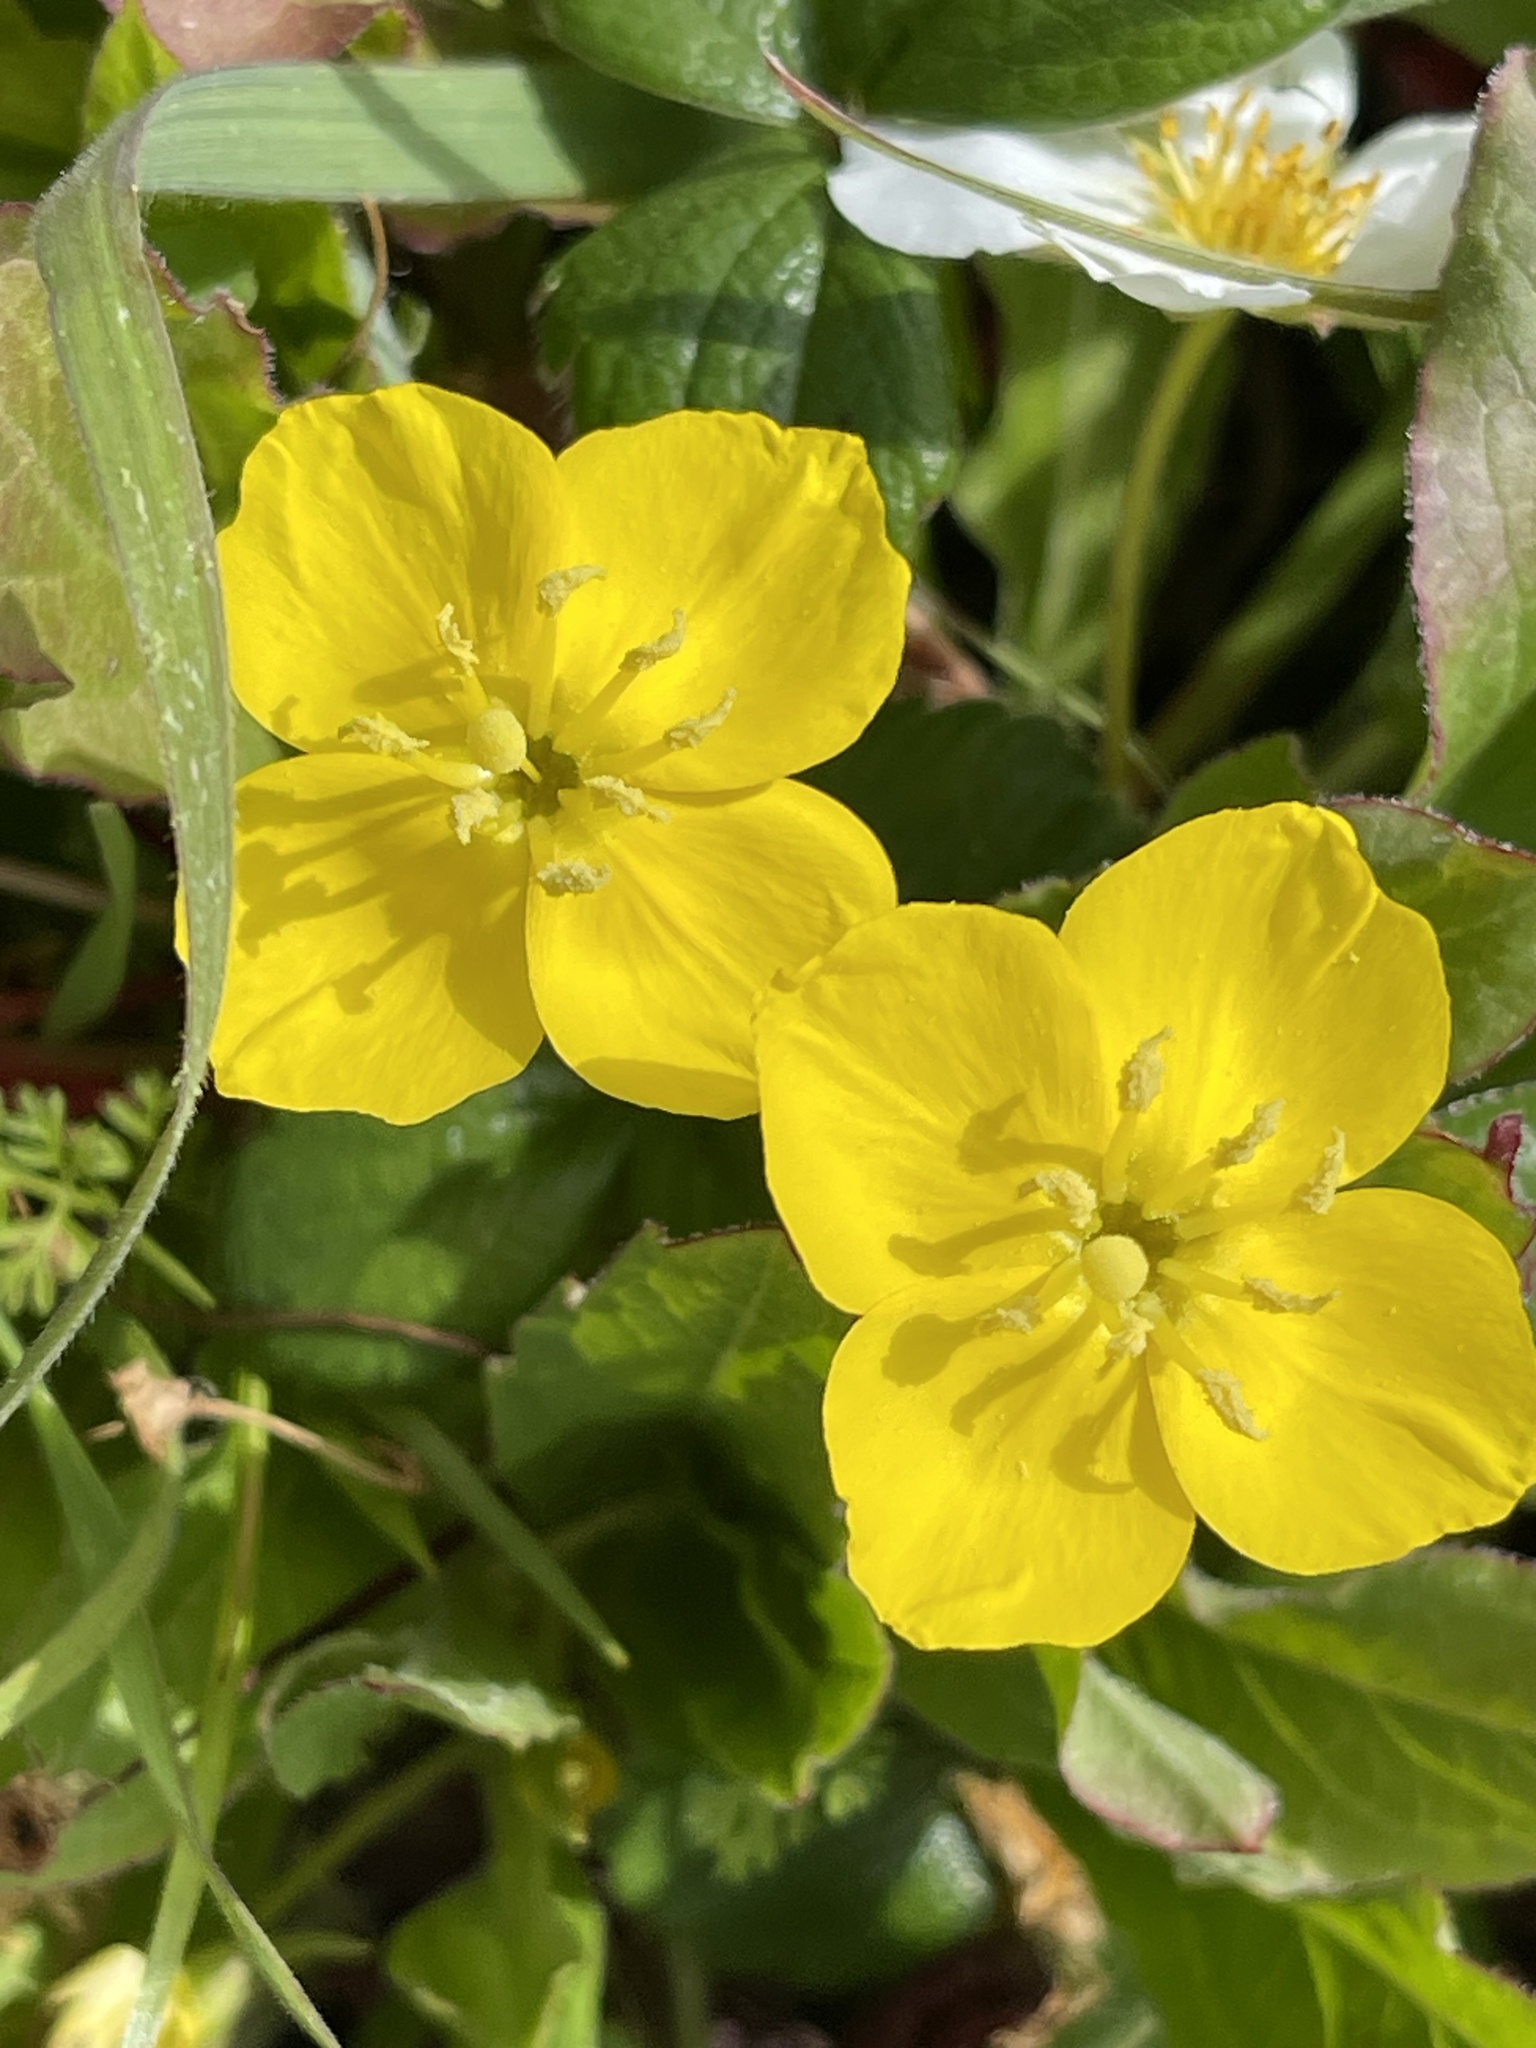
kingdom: Plantae
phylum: Tracheophyta
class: Magnoliopsida
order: Myrtales
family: Onagraceae
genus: Taraxia
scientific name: Taraxia ovata
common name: Goldeneggs
